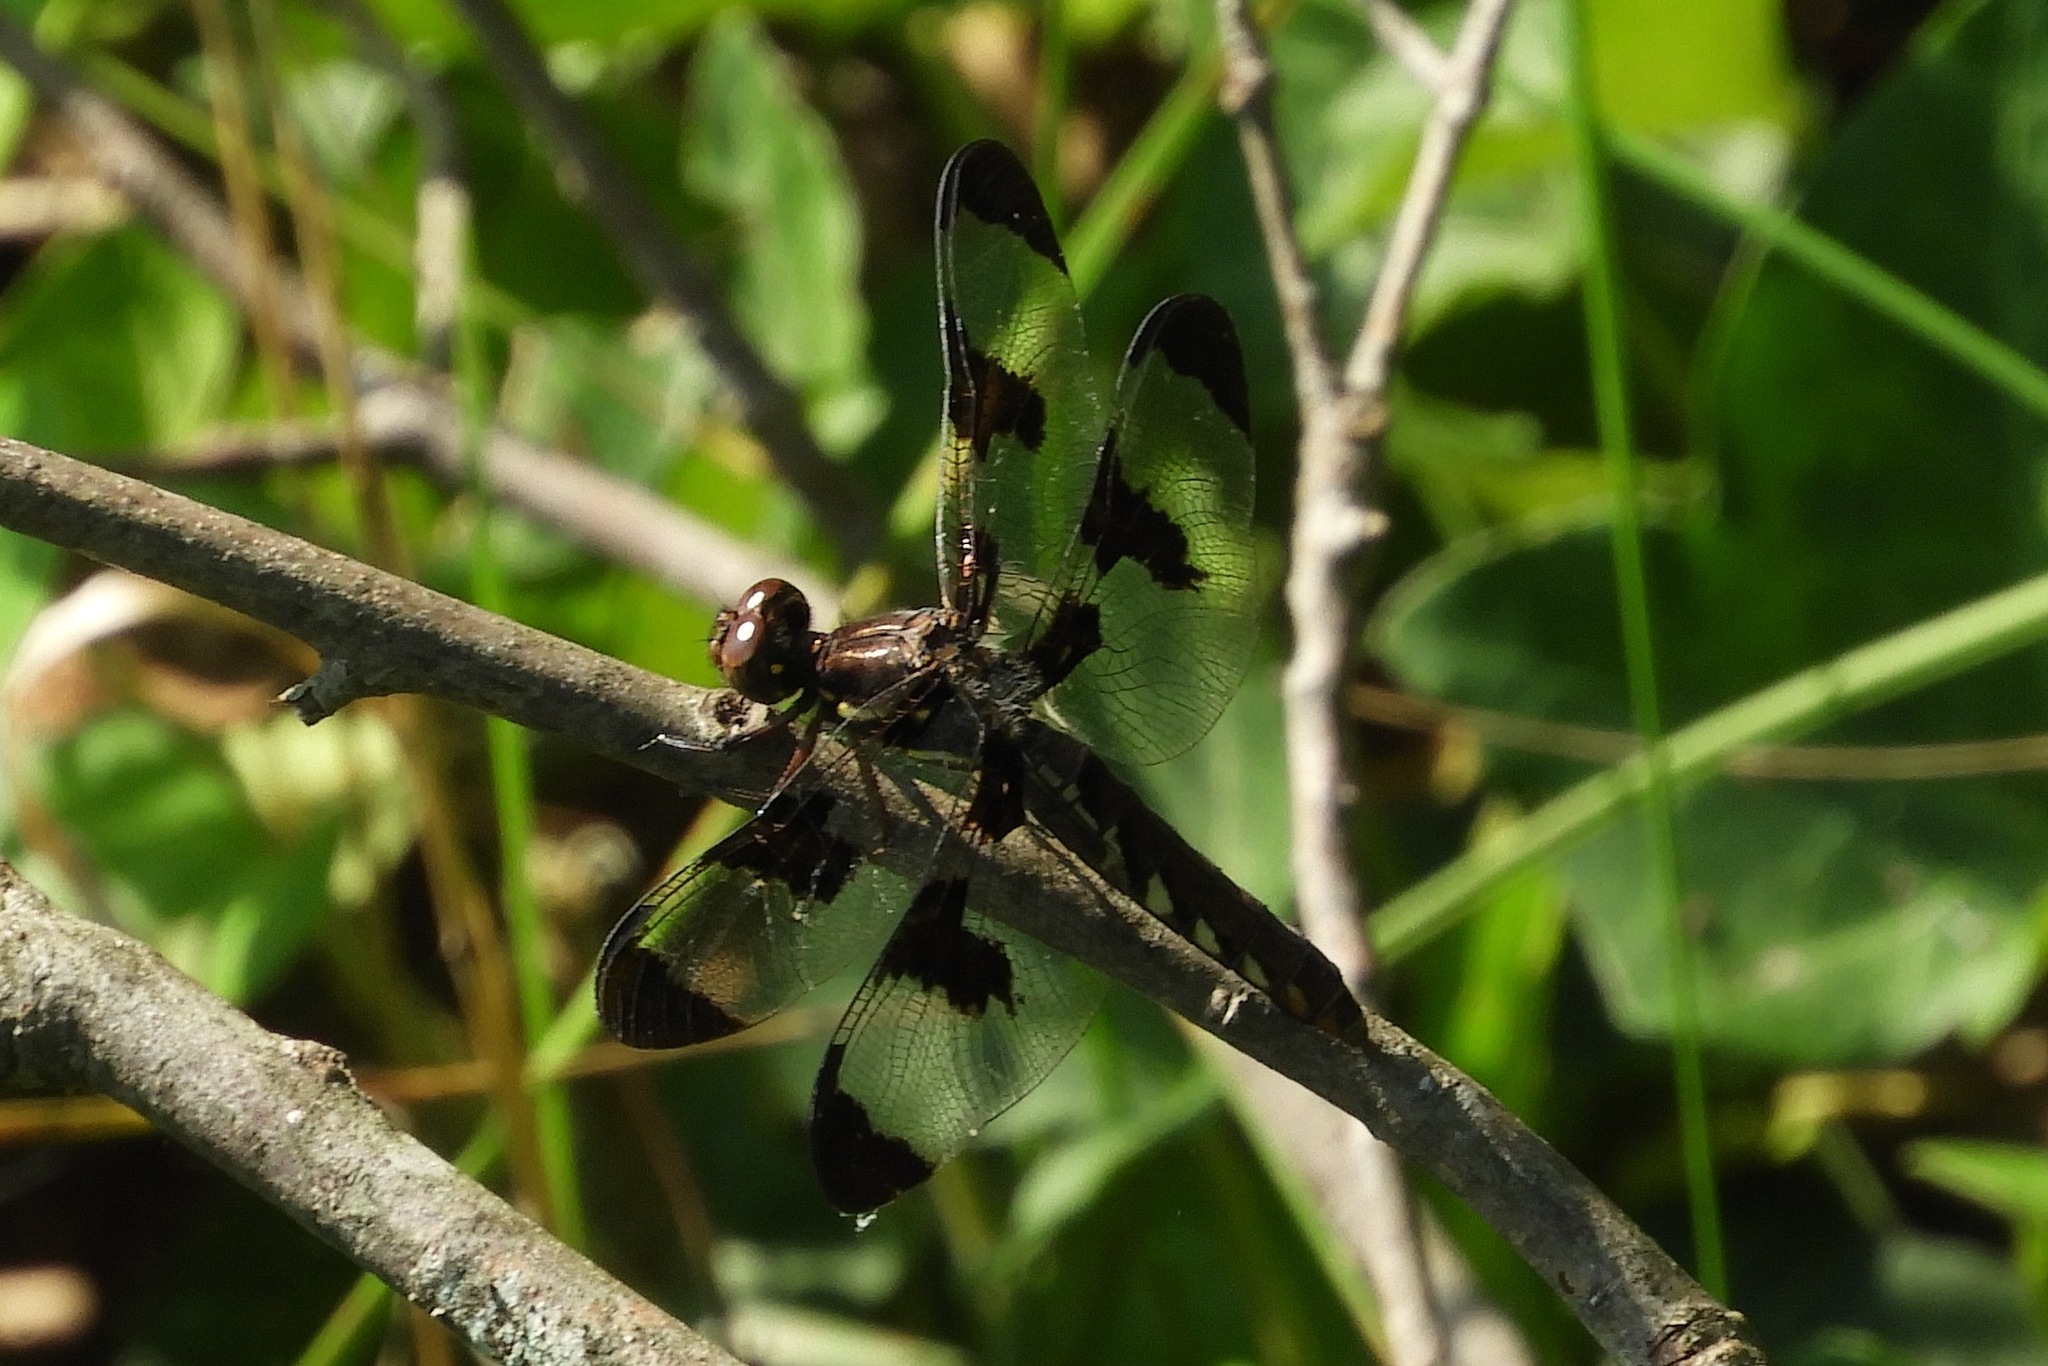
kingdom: Animalia
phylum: Arthropoda
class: Insecta
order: Odonata
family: Libellulidae
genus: Plathemis
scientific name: Plathemis lydia
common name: Common whitetail
